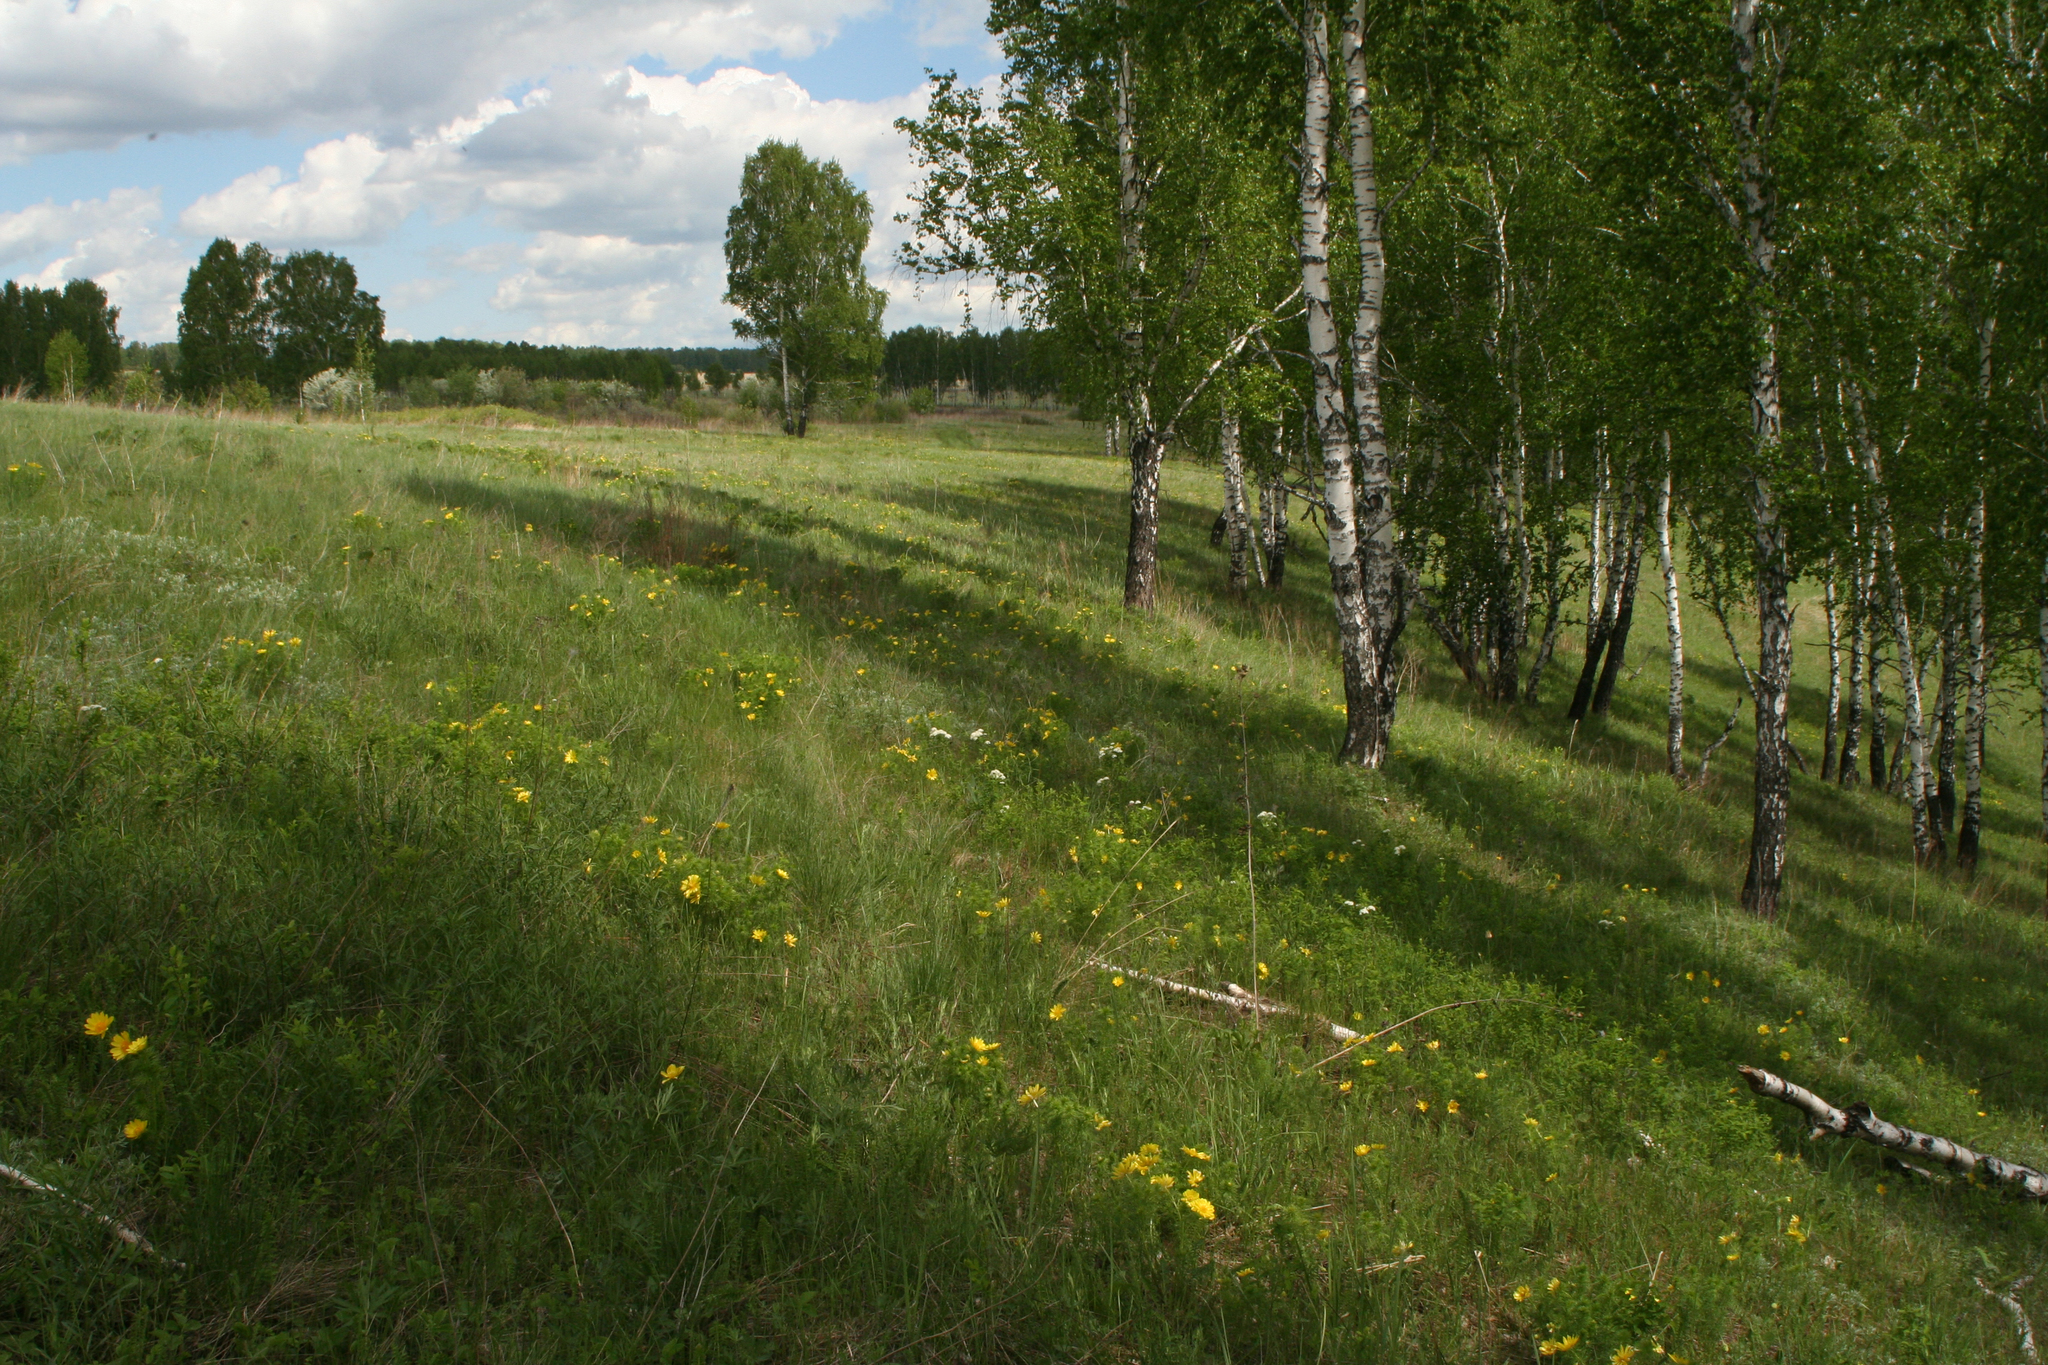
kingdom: Plantae
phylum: Tracheophyta
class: Magnoliopsida
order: Ranunculales
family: Ranunculaceae
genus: Adonis
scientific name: Adonis vernalis
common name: Yellow pheasants-eye
